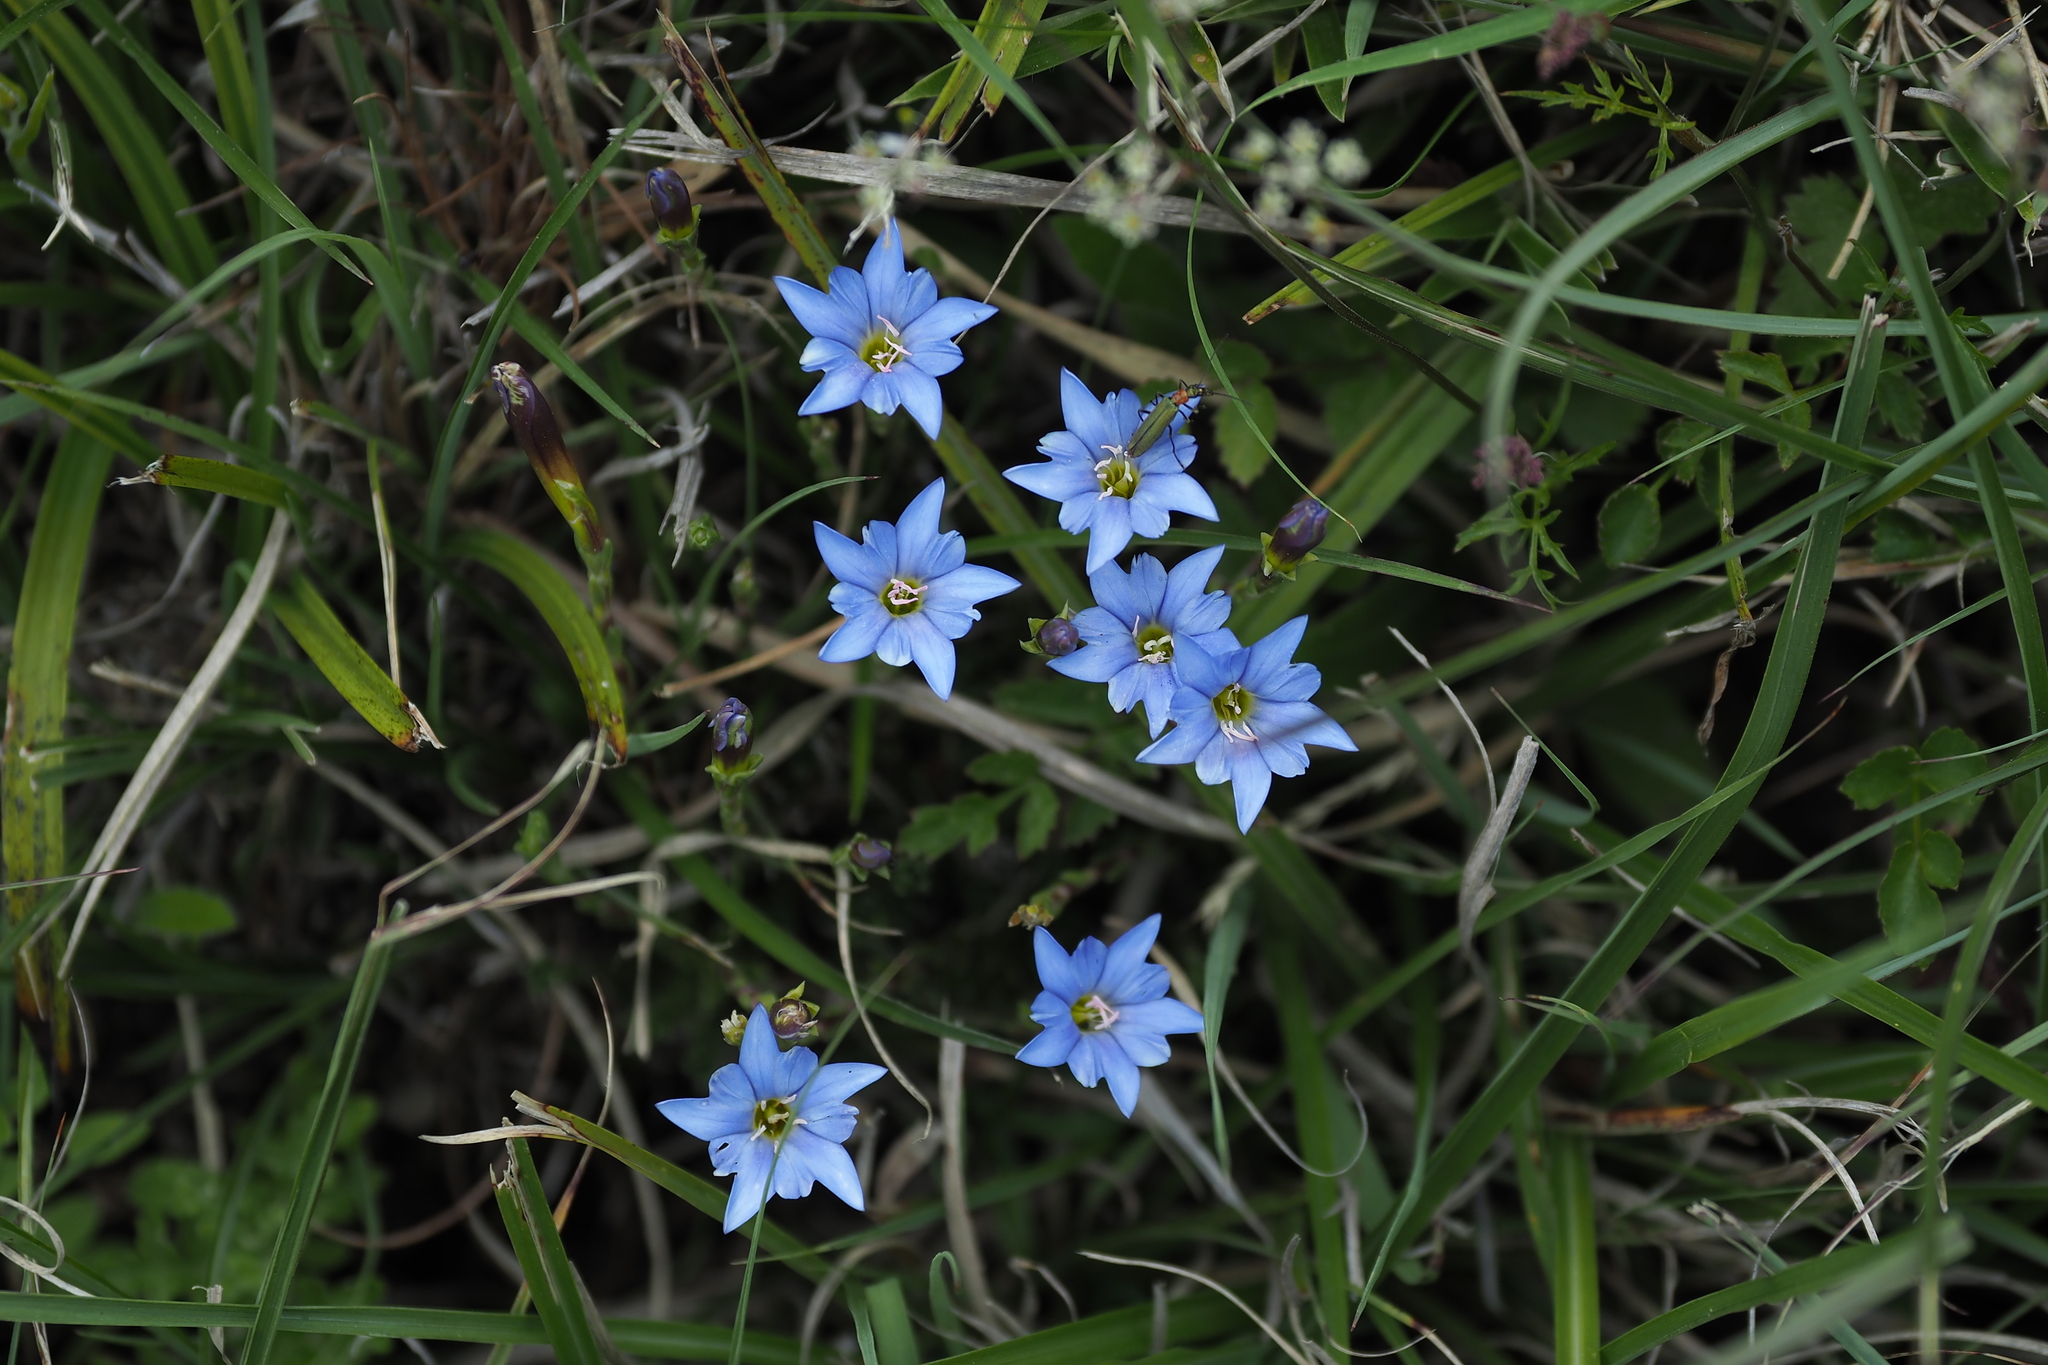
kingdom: Plantae
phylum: Tracheophyta
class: Magnoliopsida
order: Gentianales
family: Gentianaceae
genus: Gentiana
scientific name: Gentiana arisanensis
